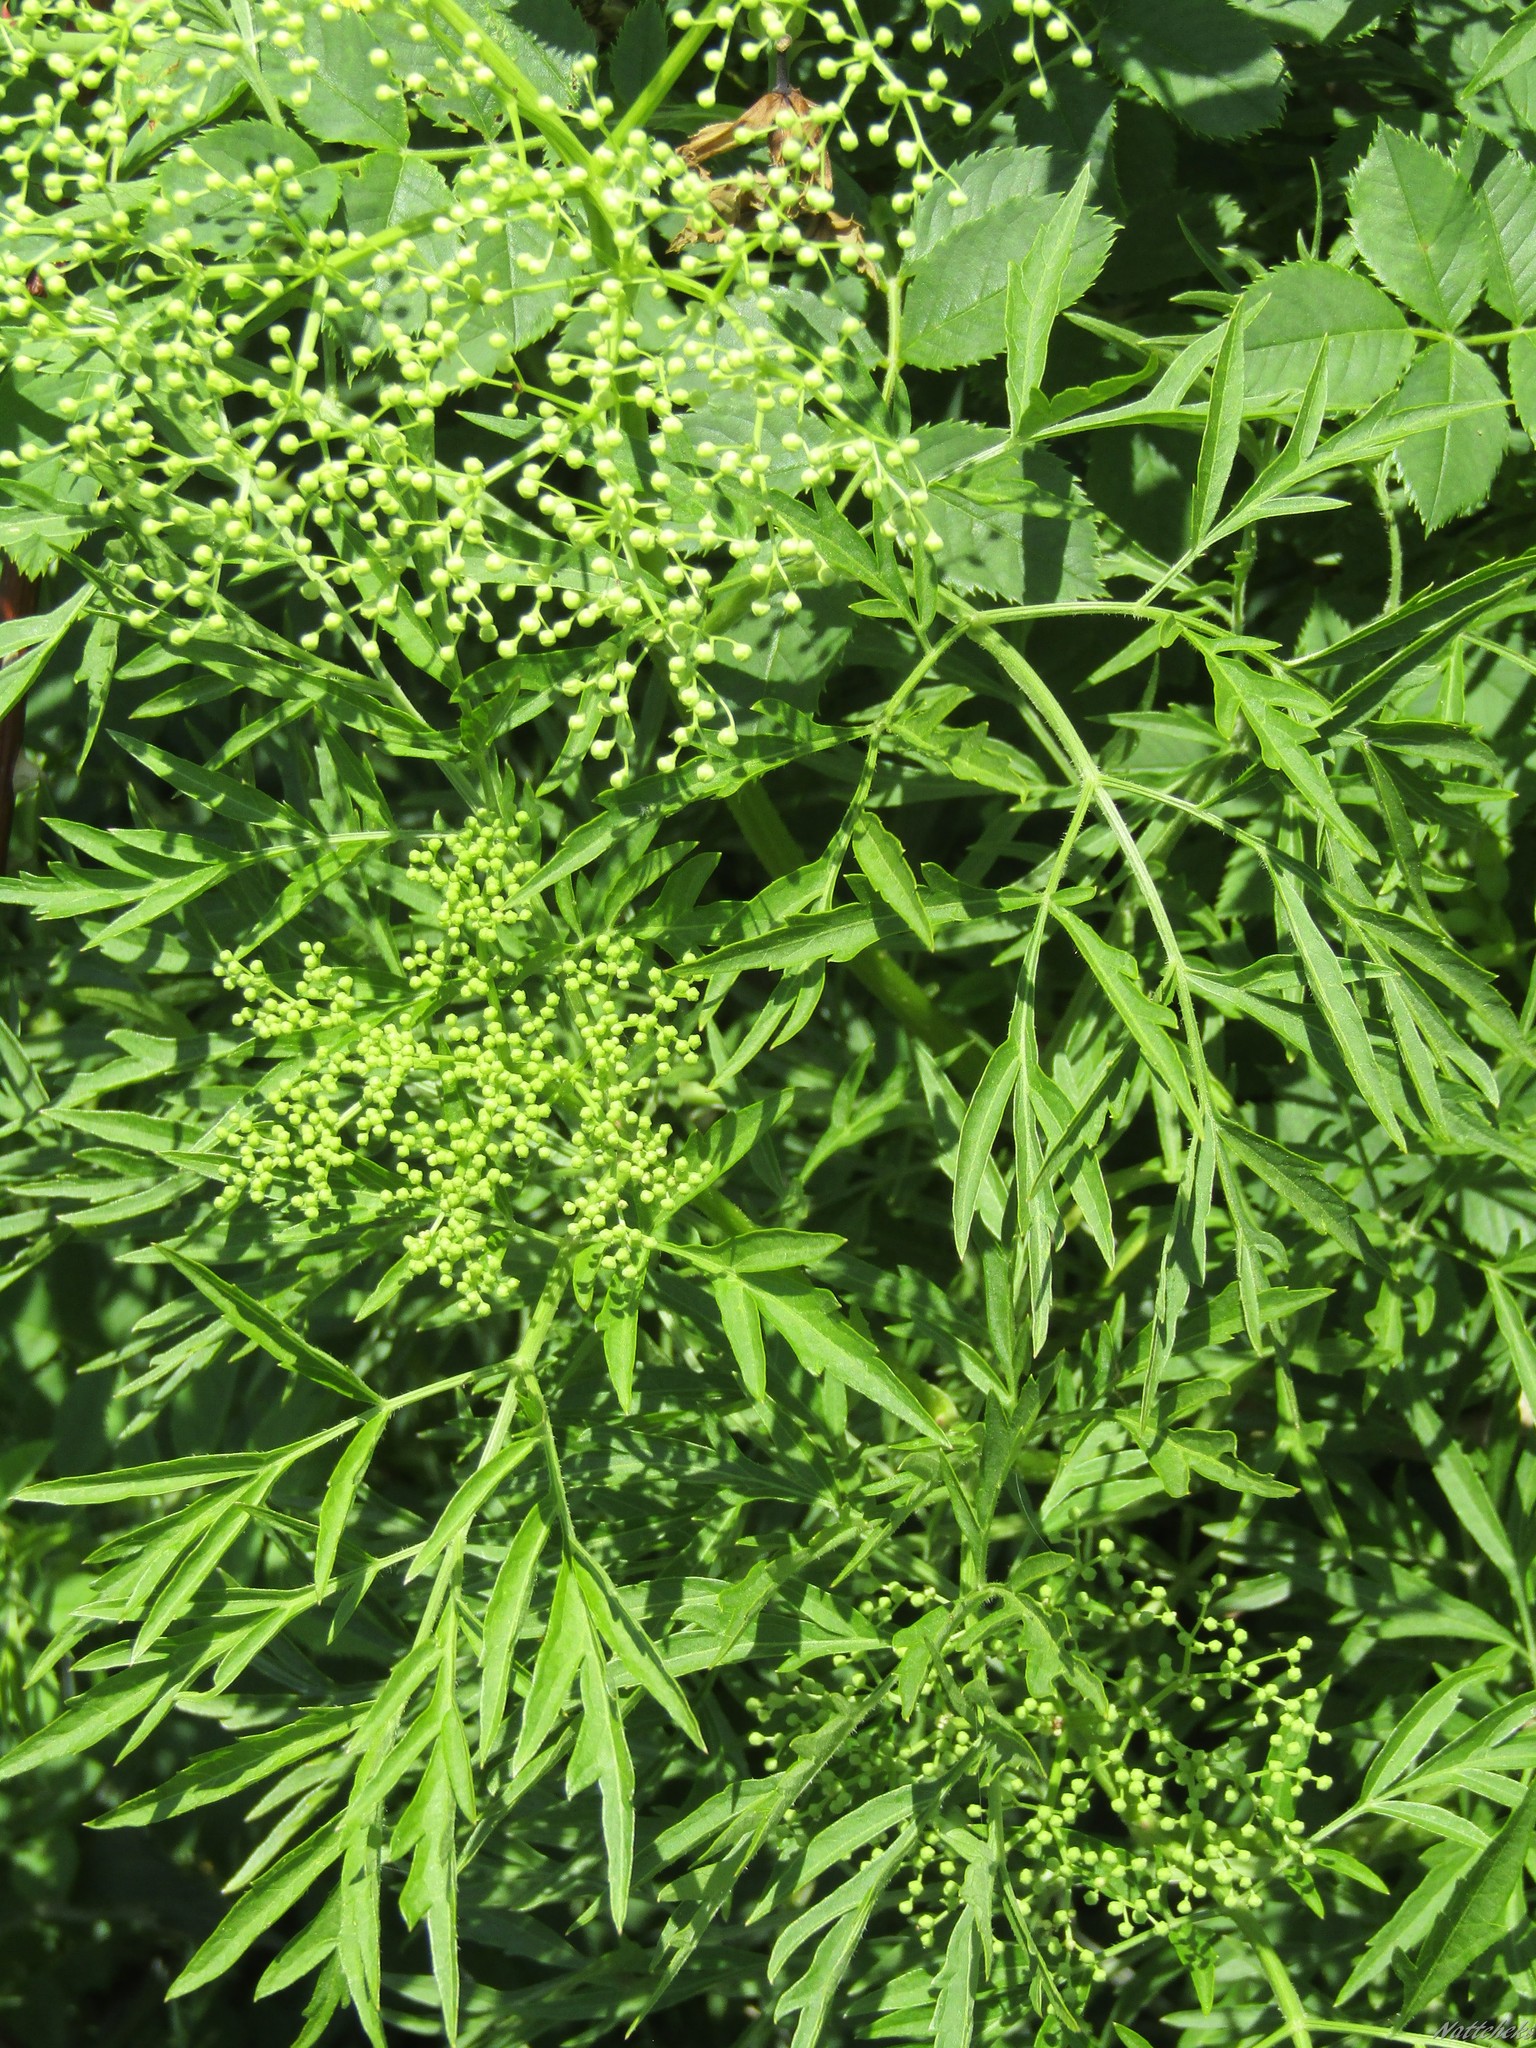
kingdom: Plantae
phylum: Tracheophyta
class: Magnoliopsida
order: Dipsacales
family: Viburnaceae
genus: Sambucus
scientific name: Sambucus nigra
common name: Elder
